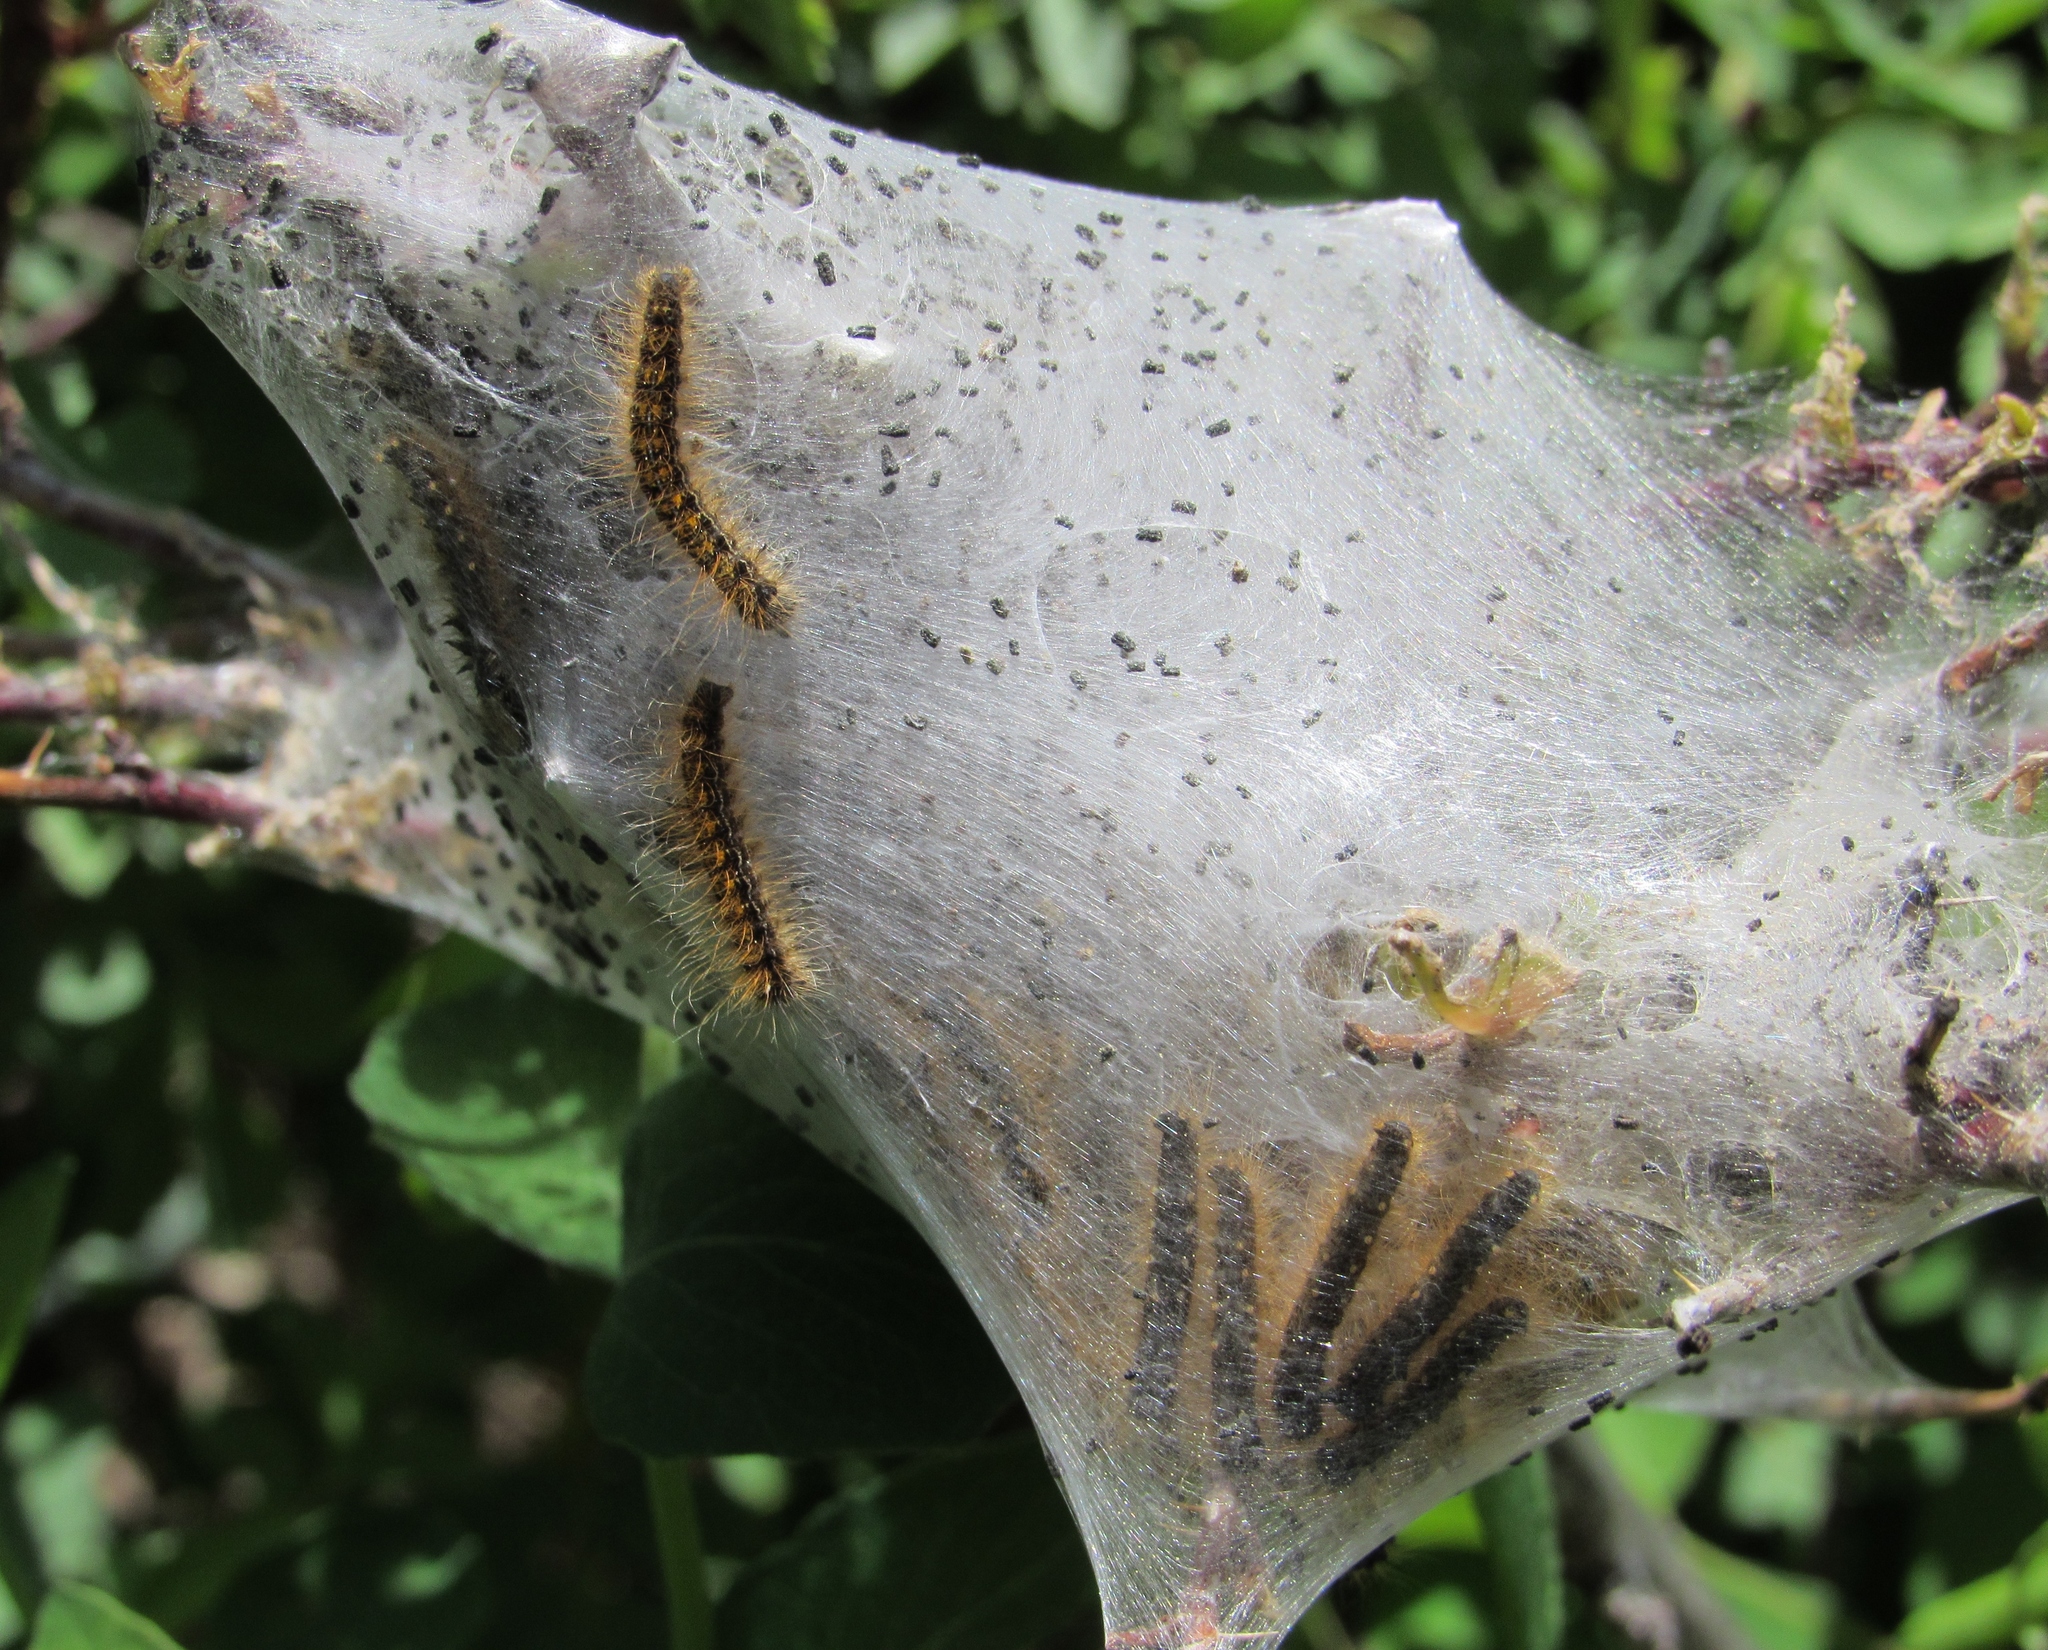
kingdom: Animalia
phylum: Arthropoda
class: Insecta
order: Lepidoptera
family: Lasiocampidae
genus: Malacosoma
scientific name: Malacosoma californica
